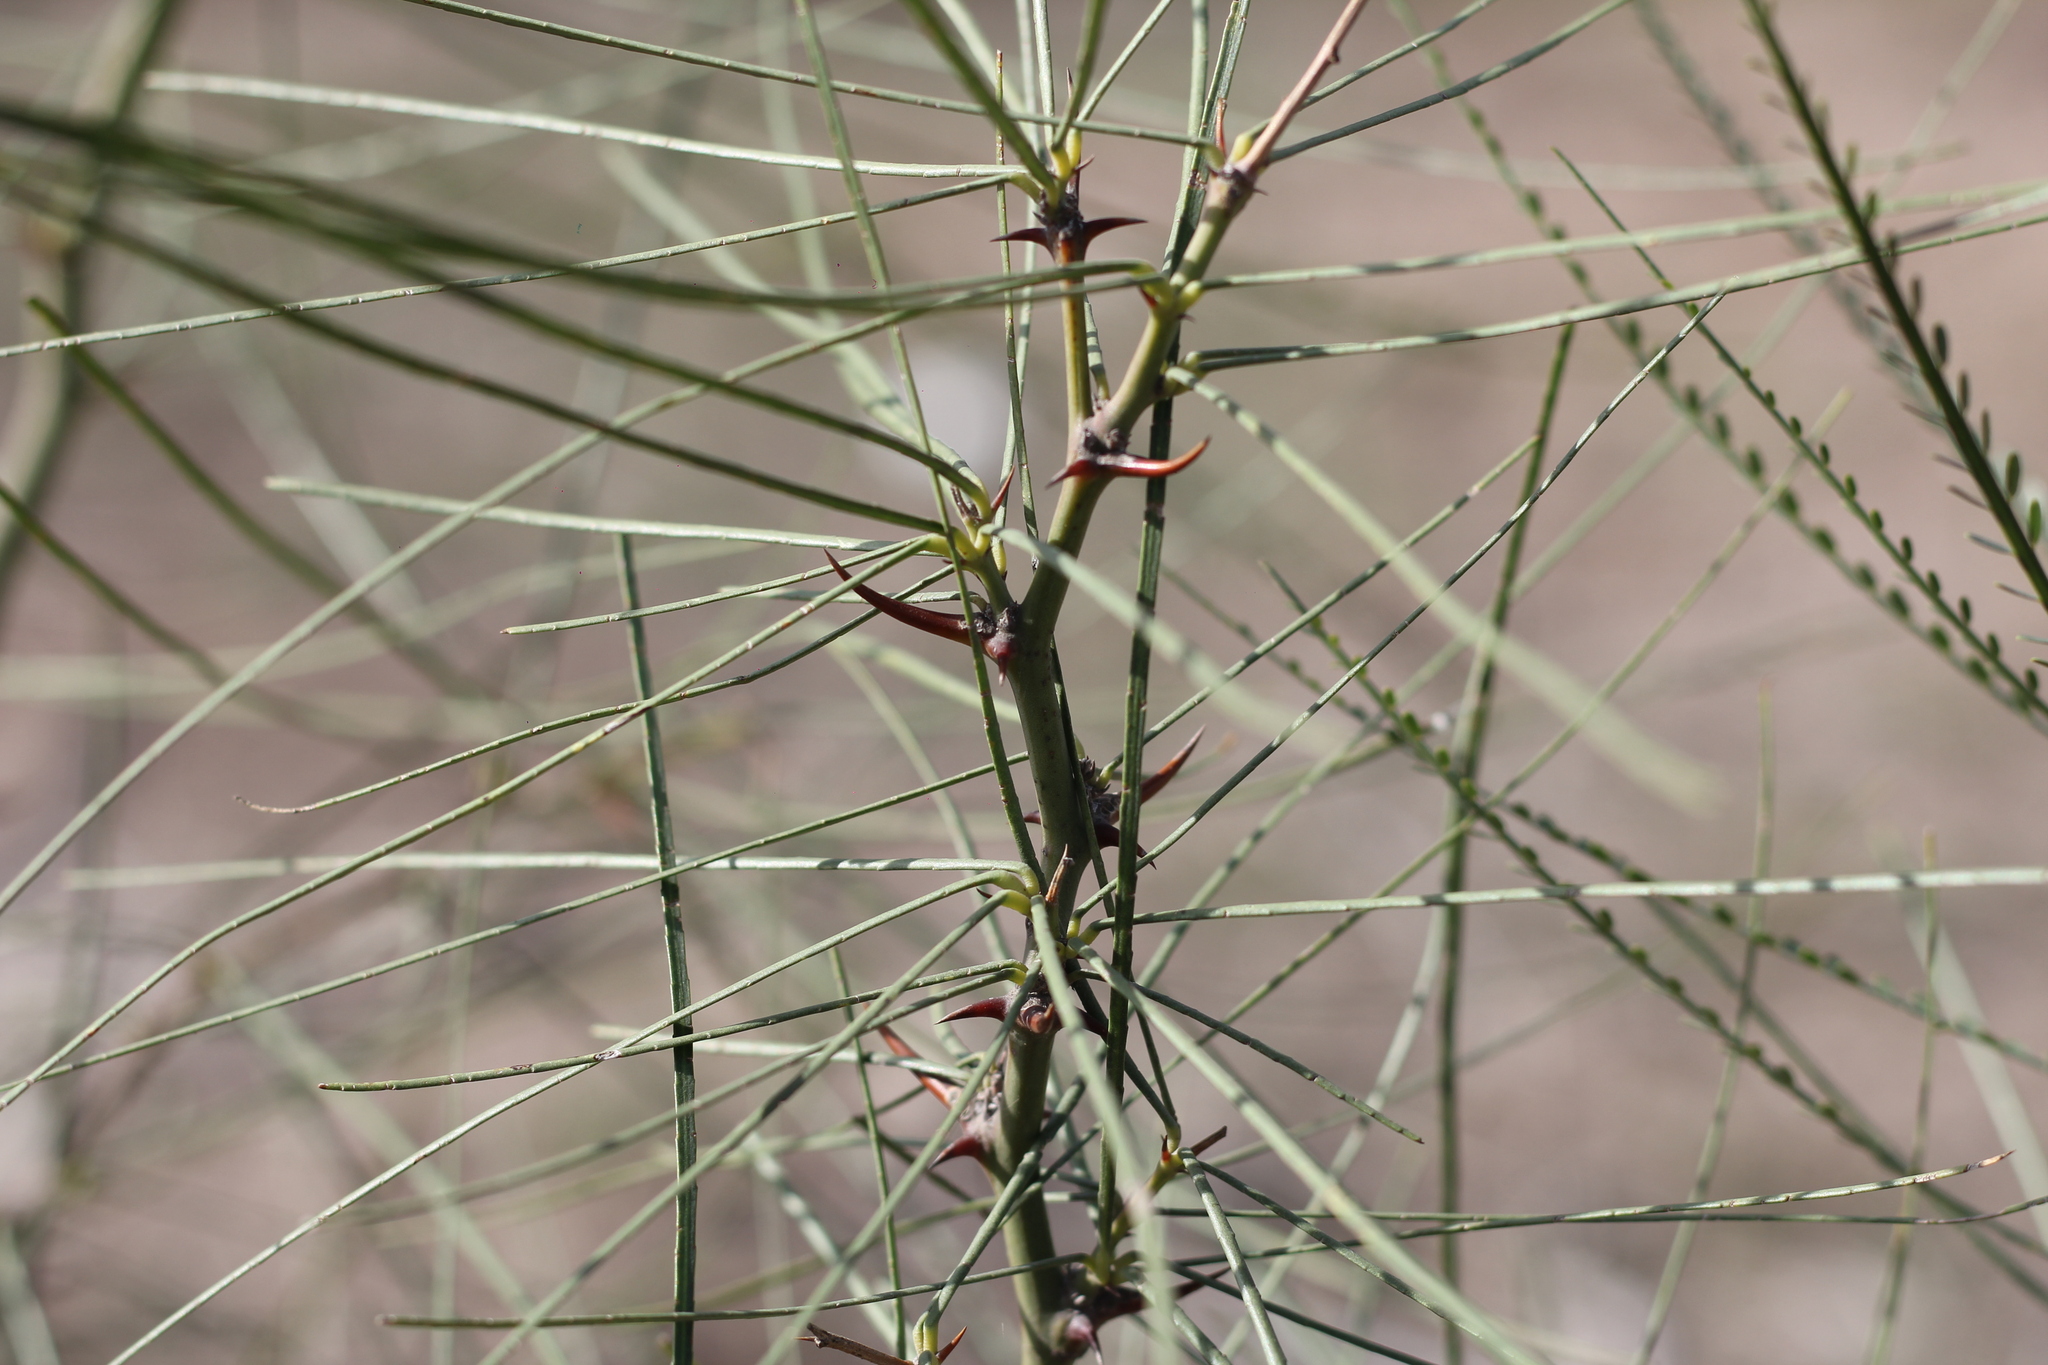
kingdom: Plantae
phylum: Tracheophyta
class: Magnoliopsida
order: Fabales
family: Fabaceae
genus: Parkinsonia
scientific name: Parkinsonia aculeata
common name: Jerusalem thorn
